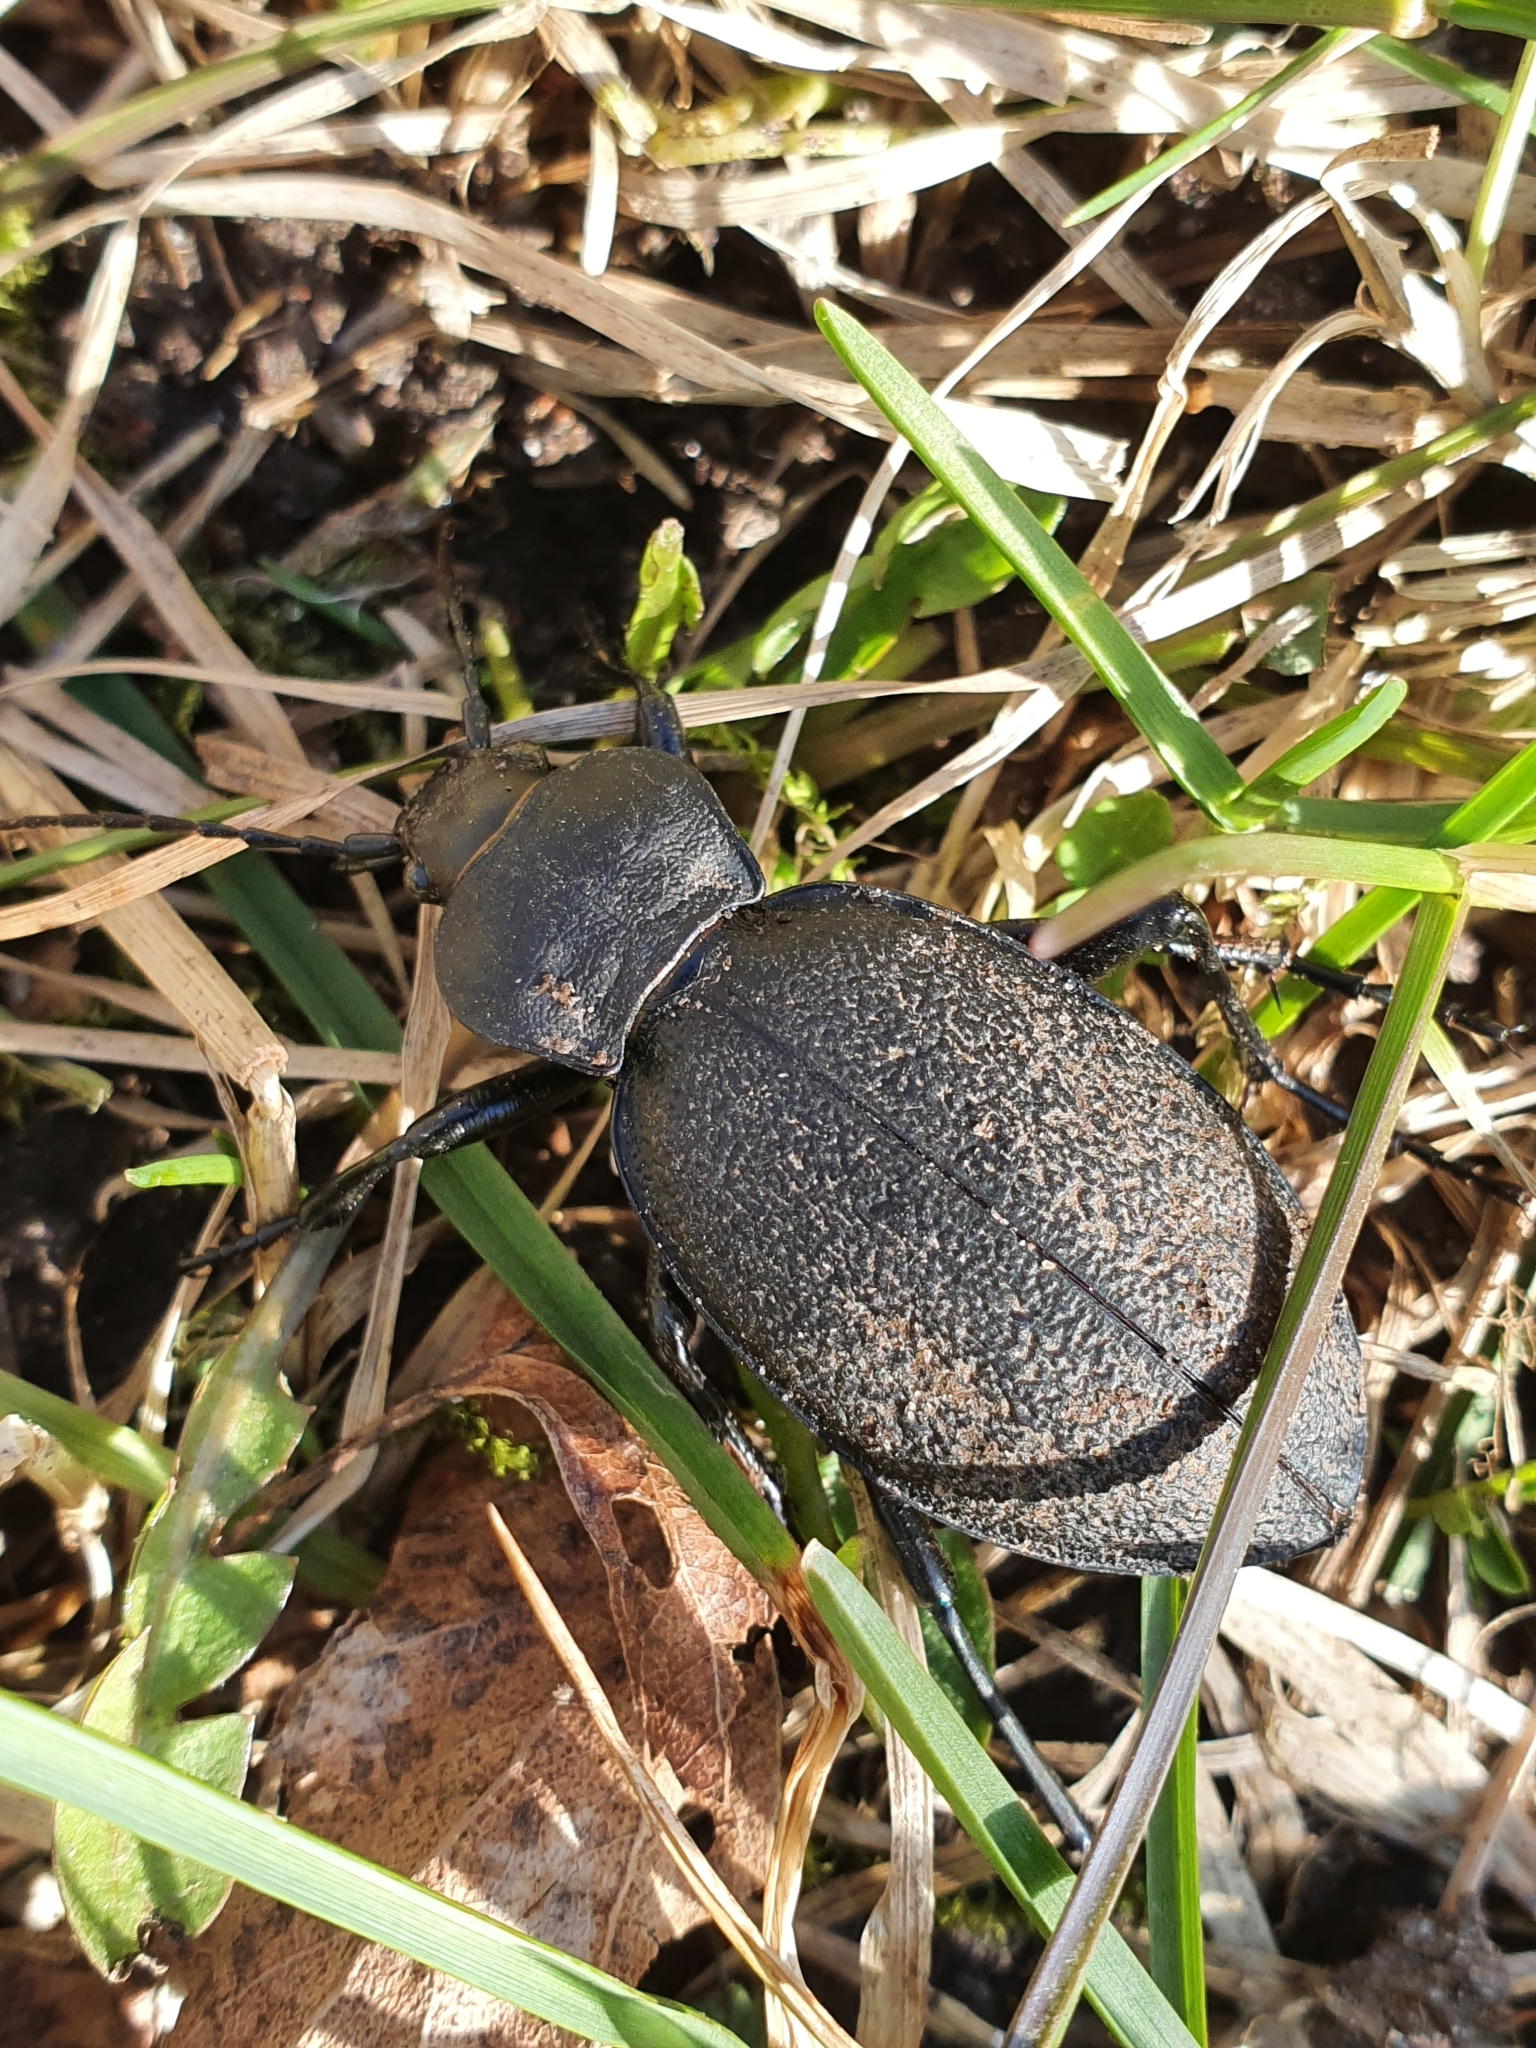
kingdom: Animalia
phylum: Arthropoda
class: Insecta
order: Coleoptera
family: Carabidae
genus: Carabus
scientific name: Carabus coriaceus
